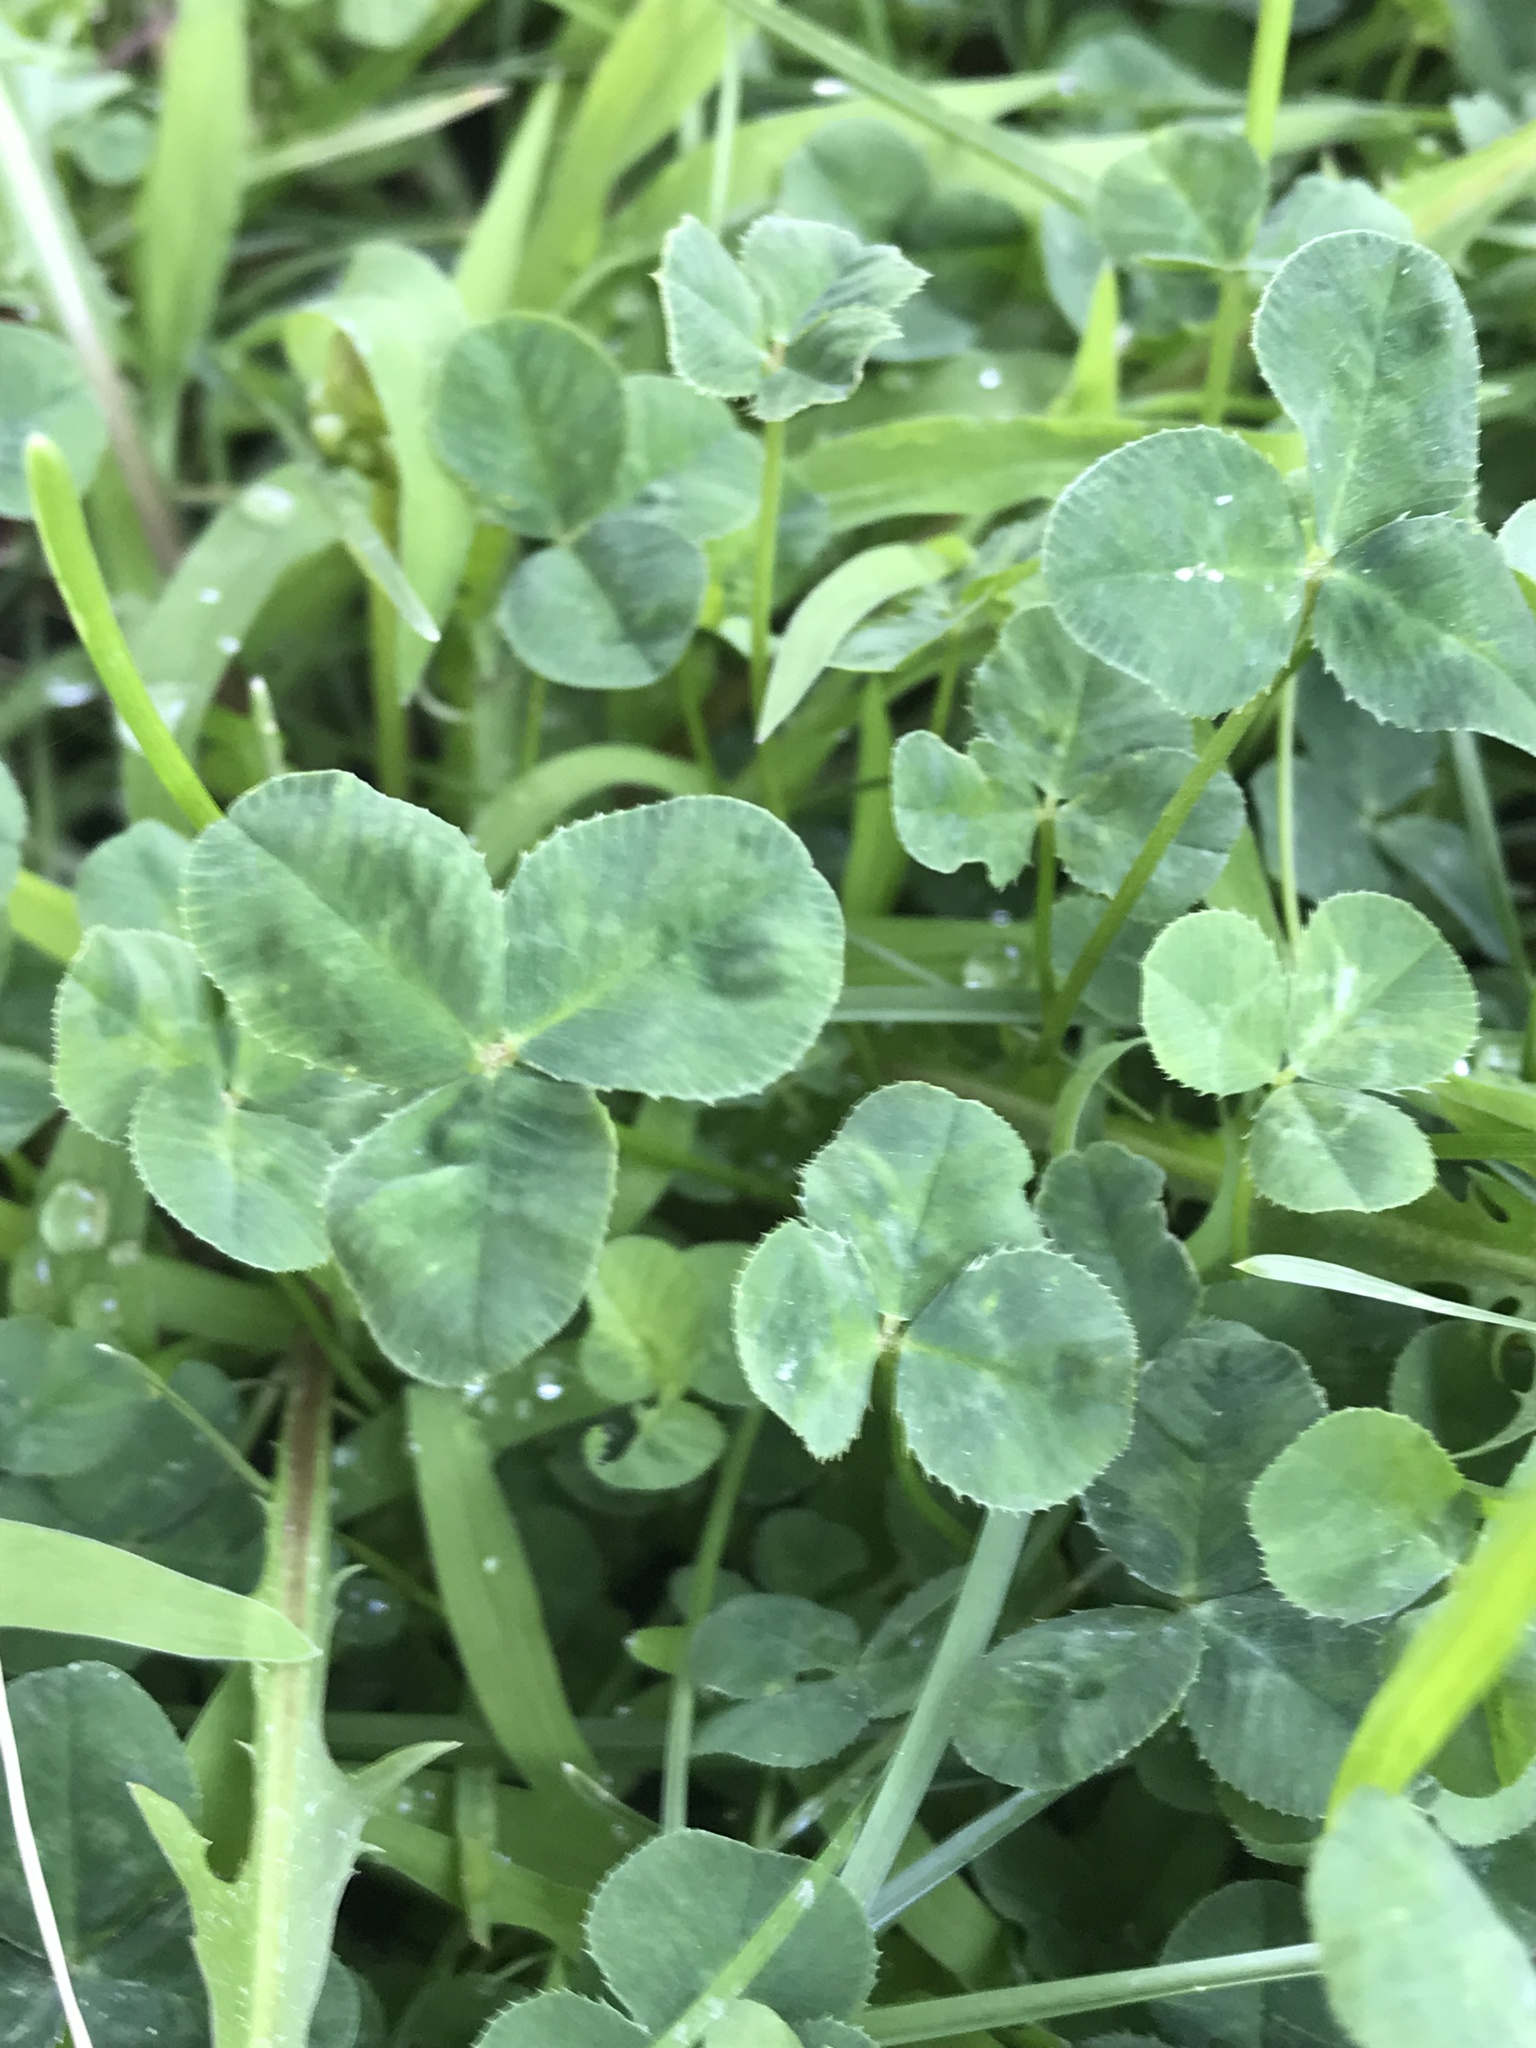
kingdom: Plantae
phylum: Tracheophyta
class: Magnoliopsida
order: Fabales
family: Fabaceae
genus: Trifolium
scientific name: Trifolium repens
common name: White clover
